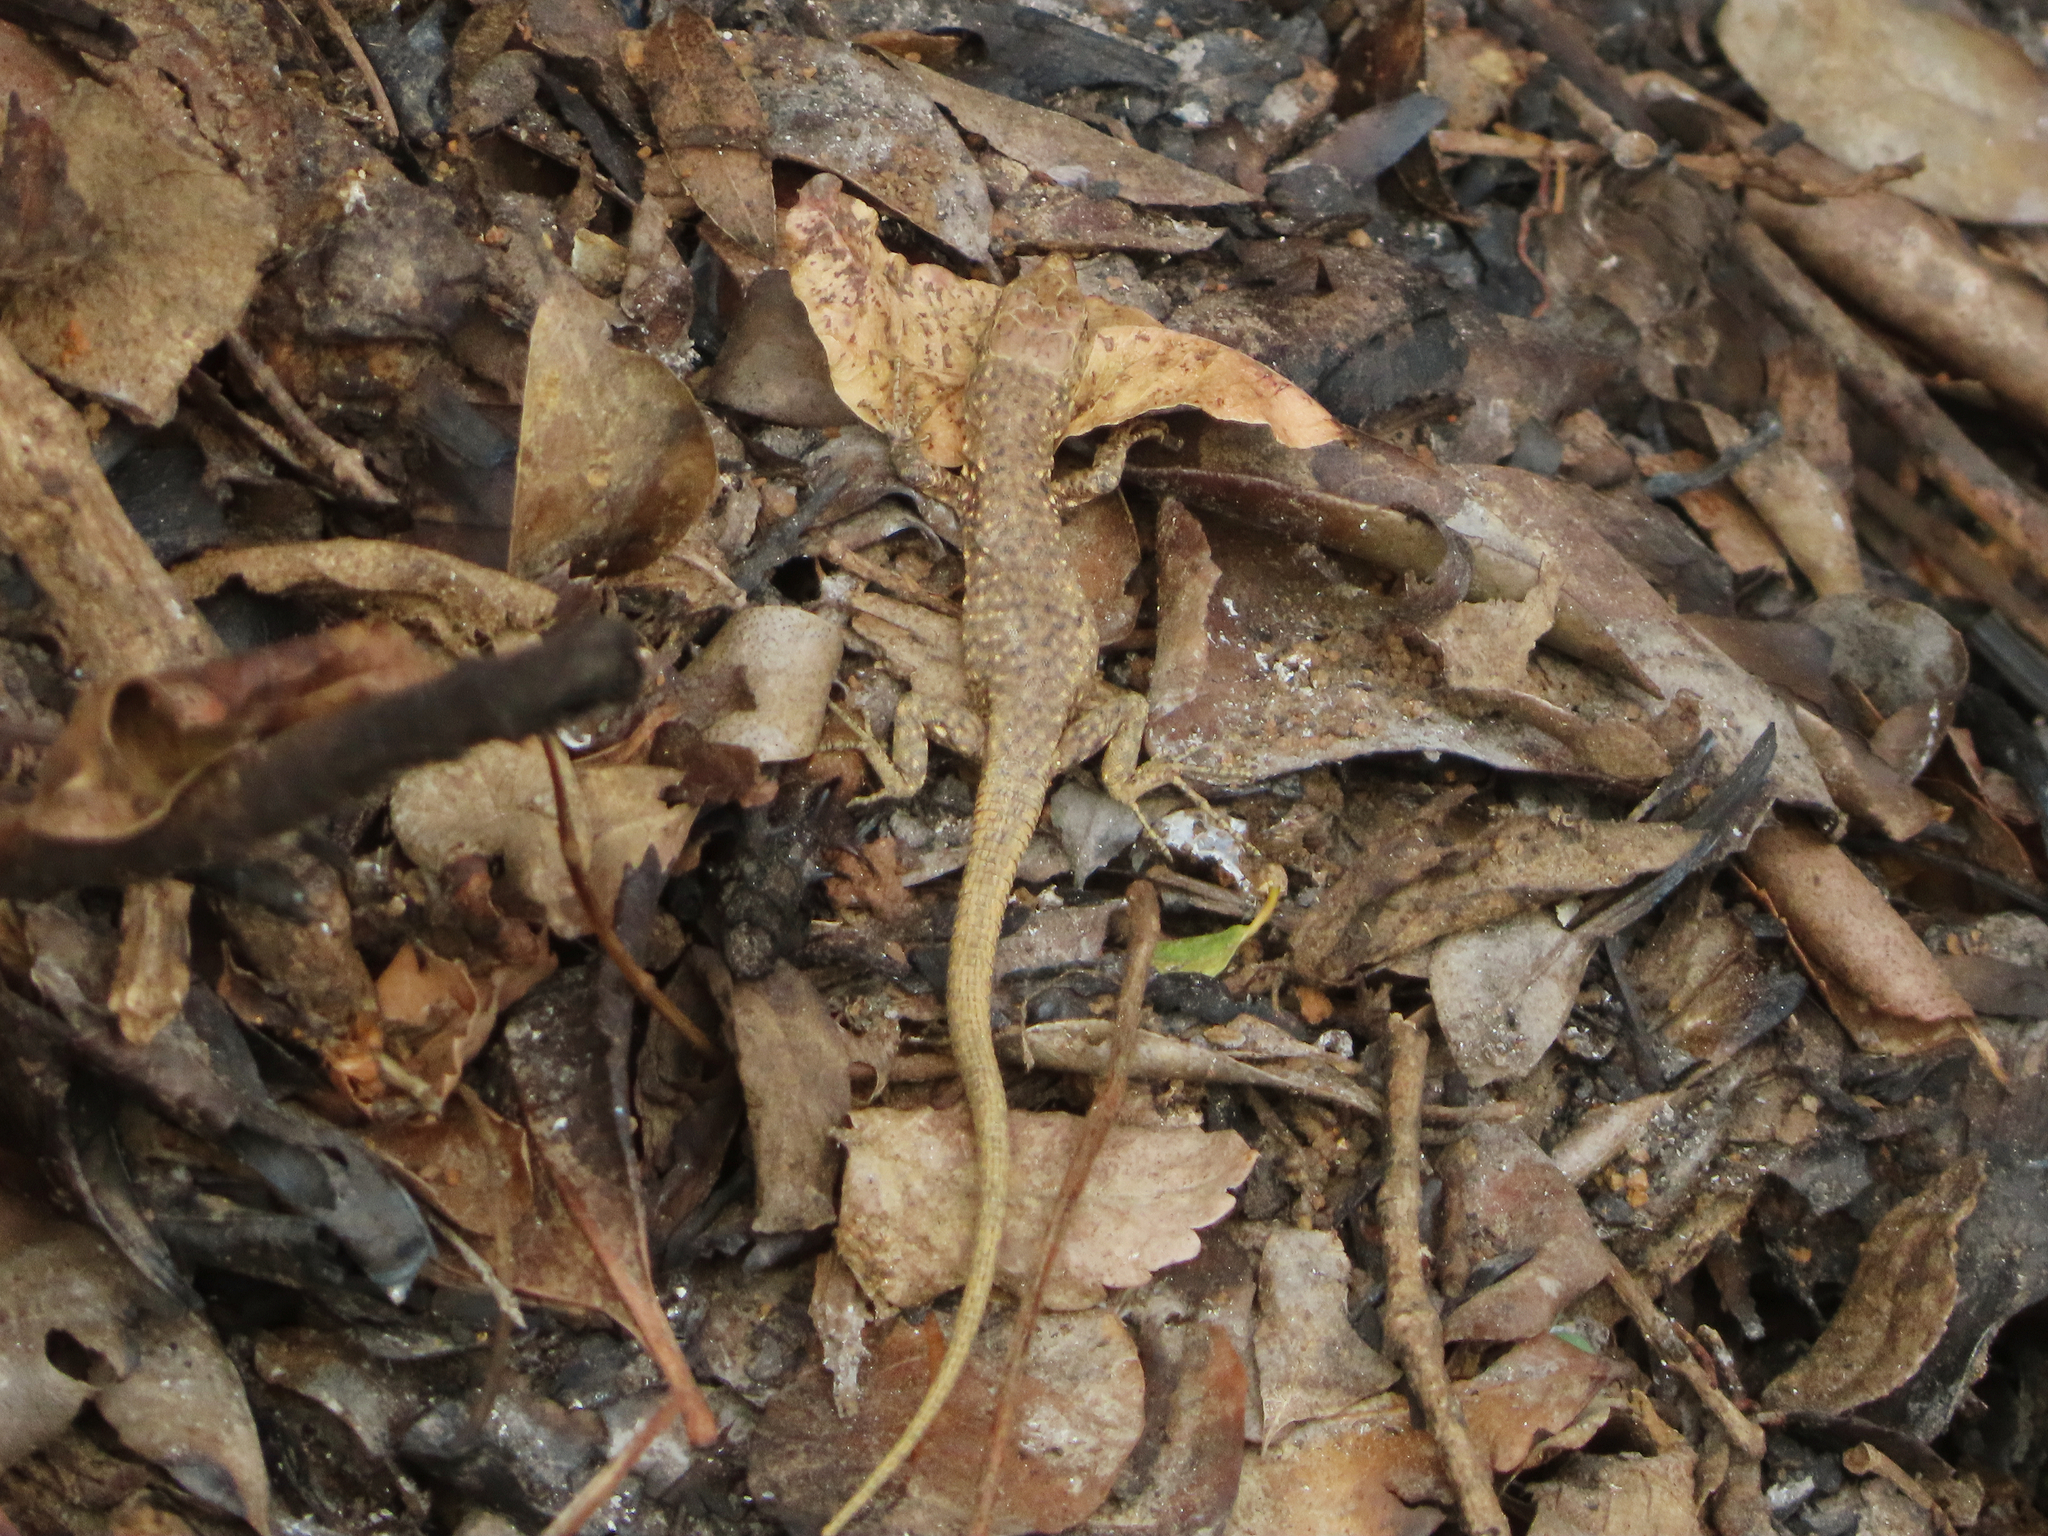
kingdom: Animalia
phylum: Chordata
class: Squamata
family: Lacertidae
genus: Darevskia
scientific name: Darevskia bithynica
